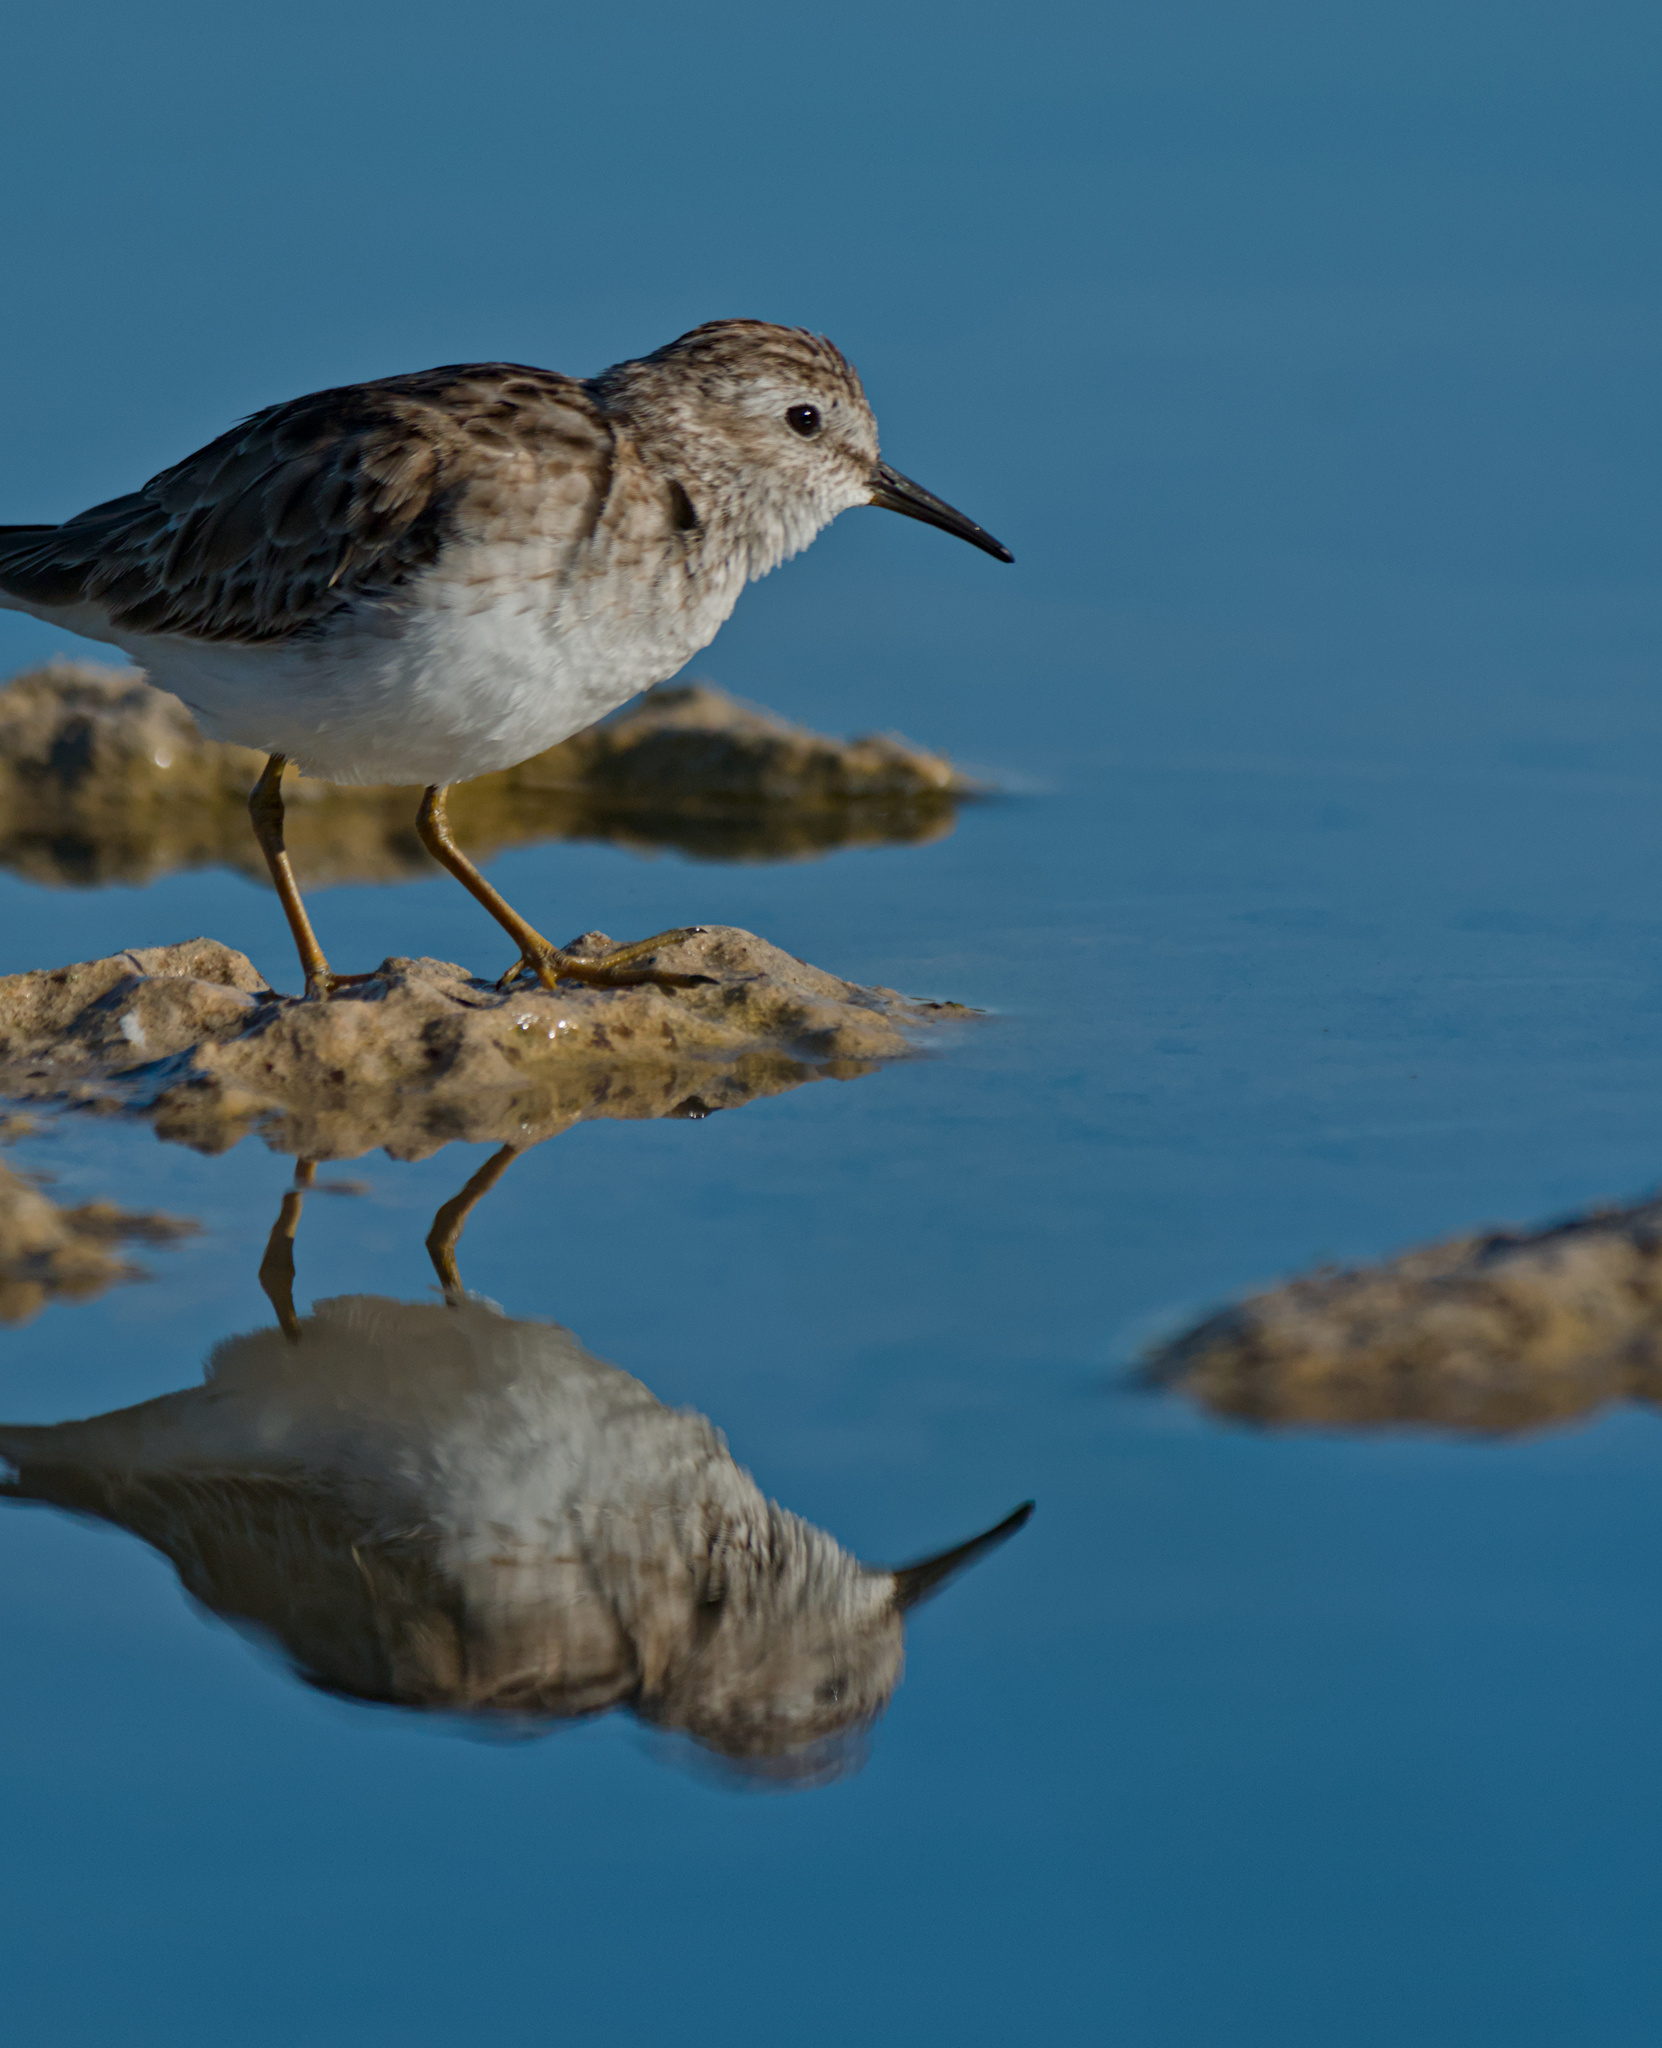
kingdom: Animalia
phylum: Chordata
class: Aves
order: Charadriiformes
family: Scolopacidae
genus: Calidris
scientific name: Calidris minutilla
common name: Least sandpiper
